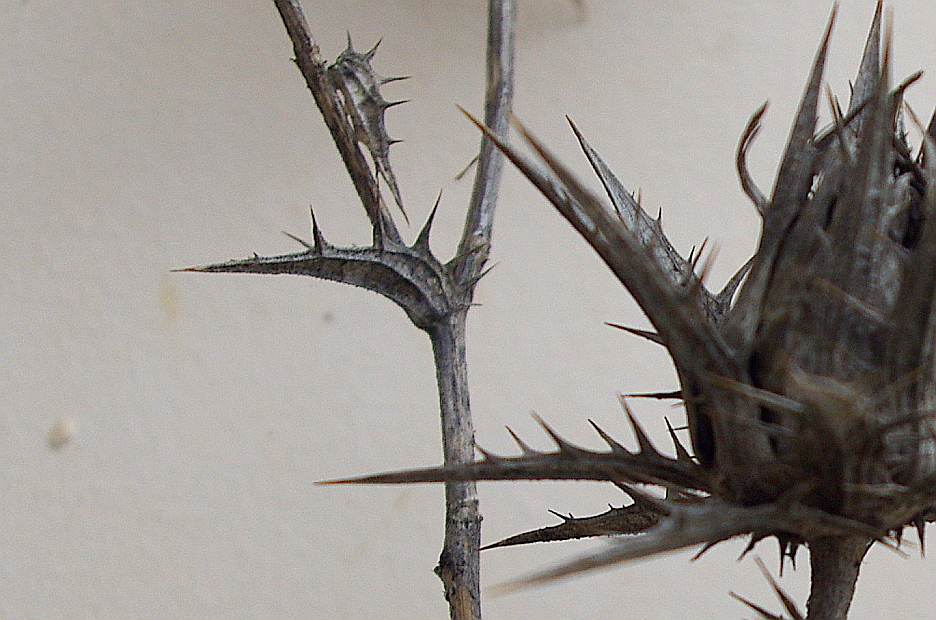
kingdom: Plantae
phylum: Tracheophyta
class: Magnoliopsida
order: Asterales
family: Asteraceae
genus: Carthamus
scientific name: Carthamus lanatus
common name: Downy safflower
